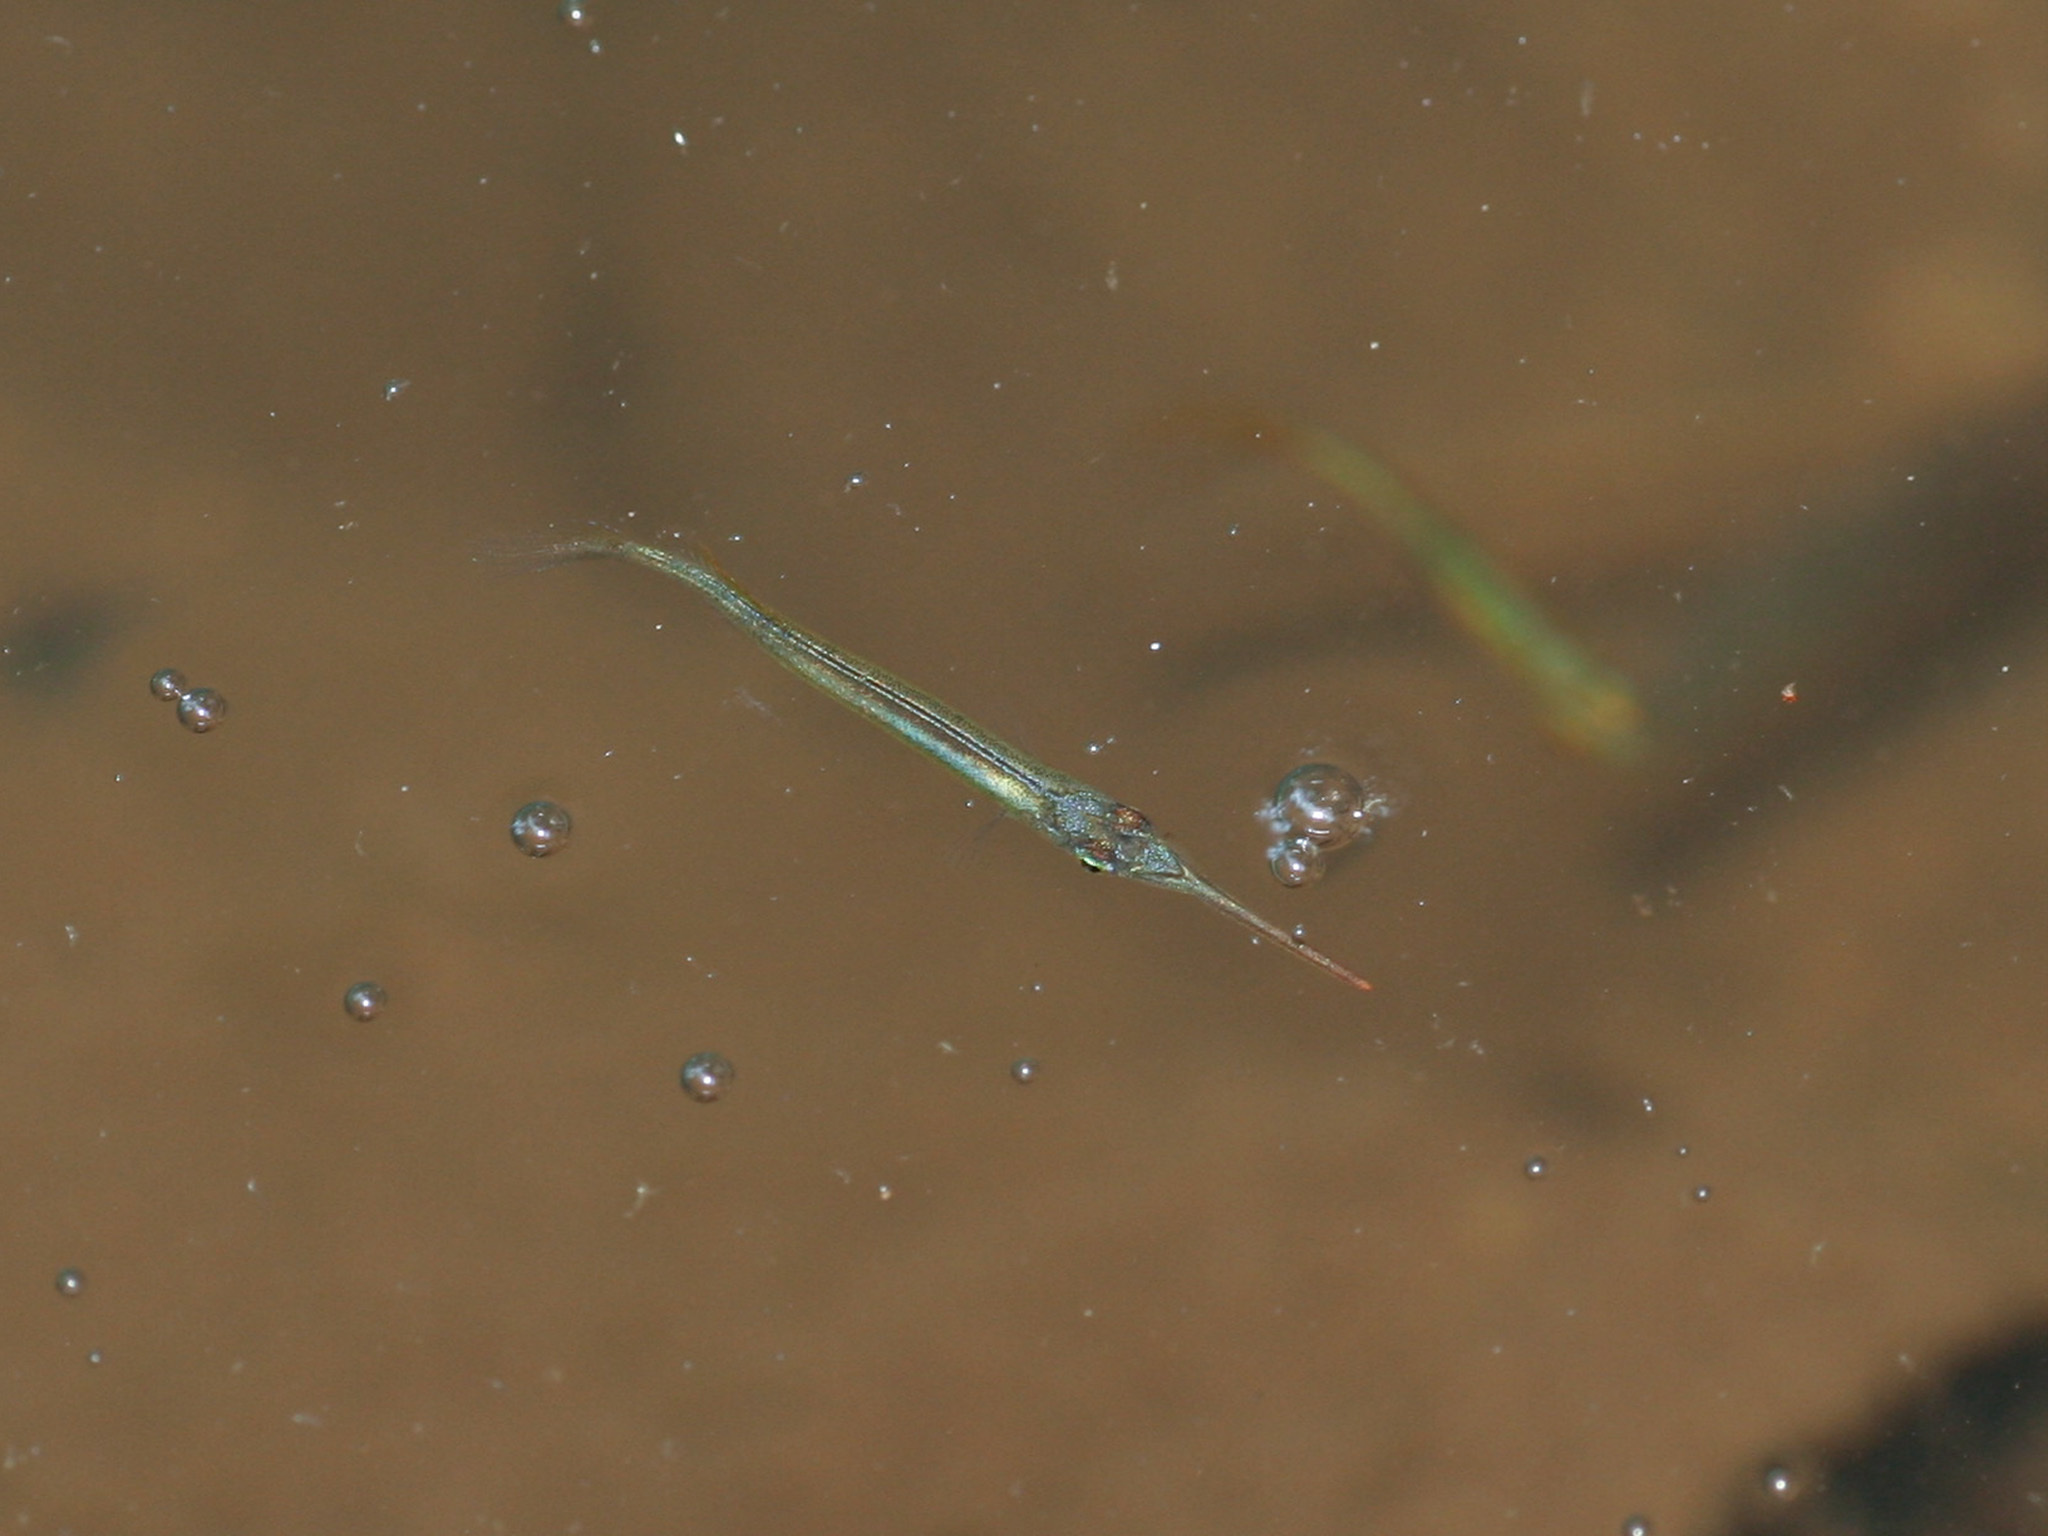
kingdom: Animalia
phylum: Chordata
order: Beloniformes
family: Zenarchopteridae
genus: Hemirhamphodon
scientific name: Hemirhamphodon pogonognathus
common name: Forest halfbeak
